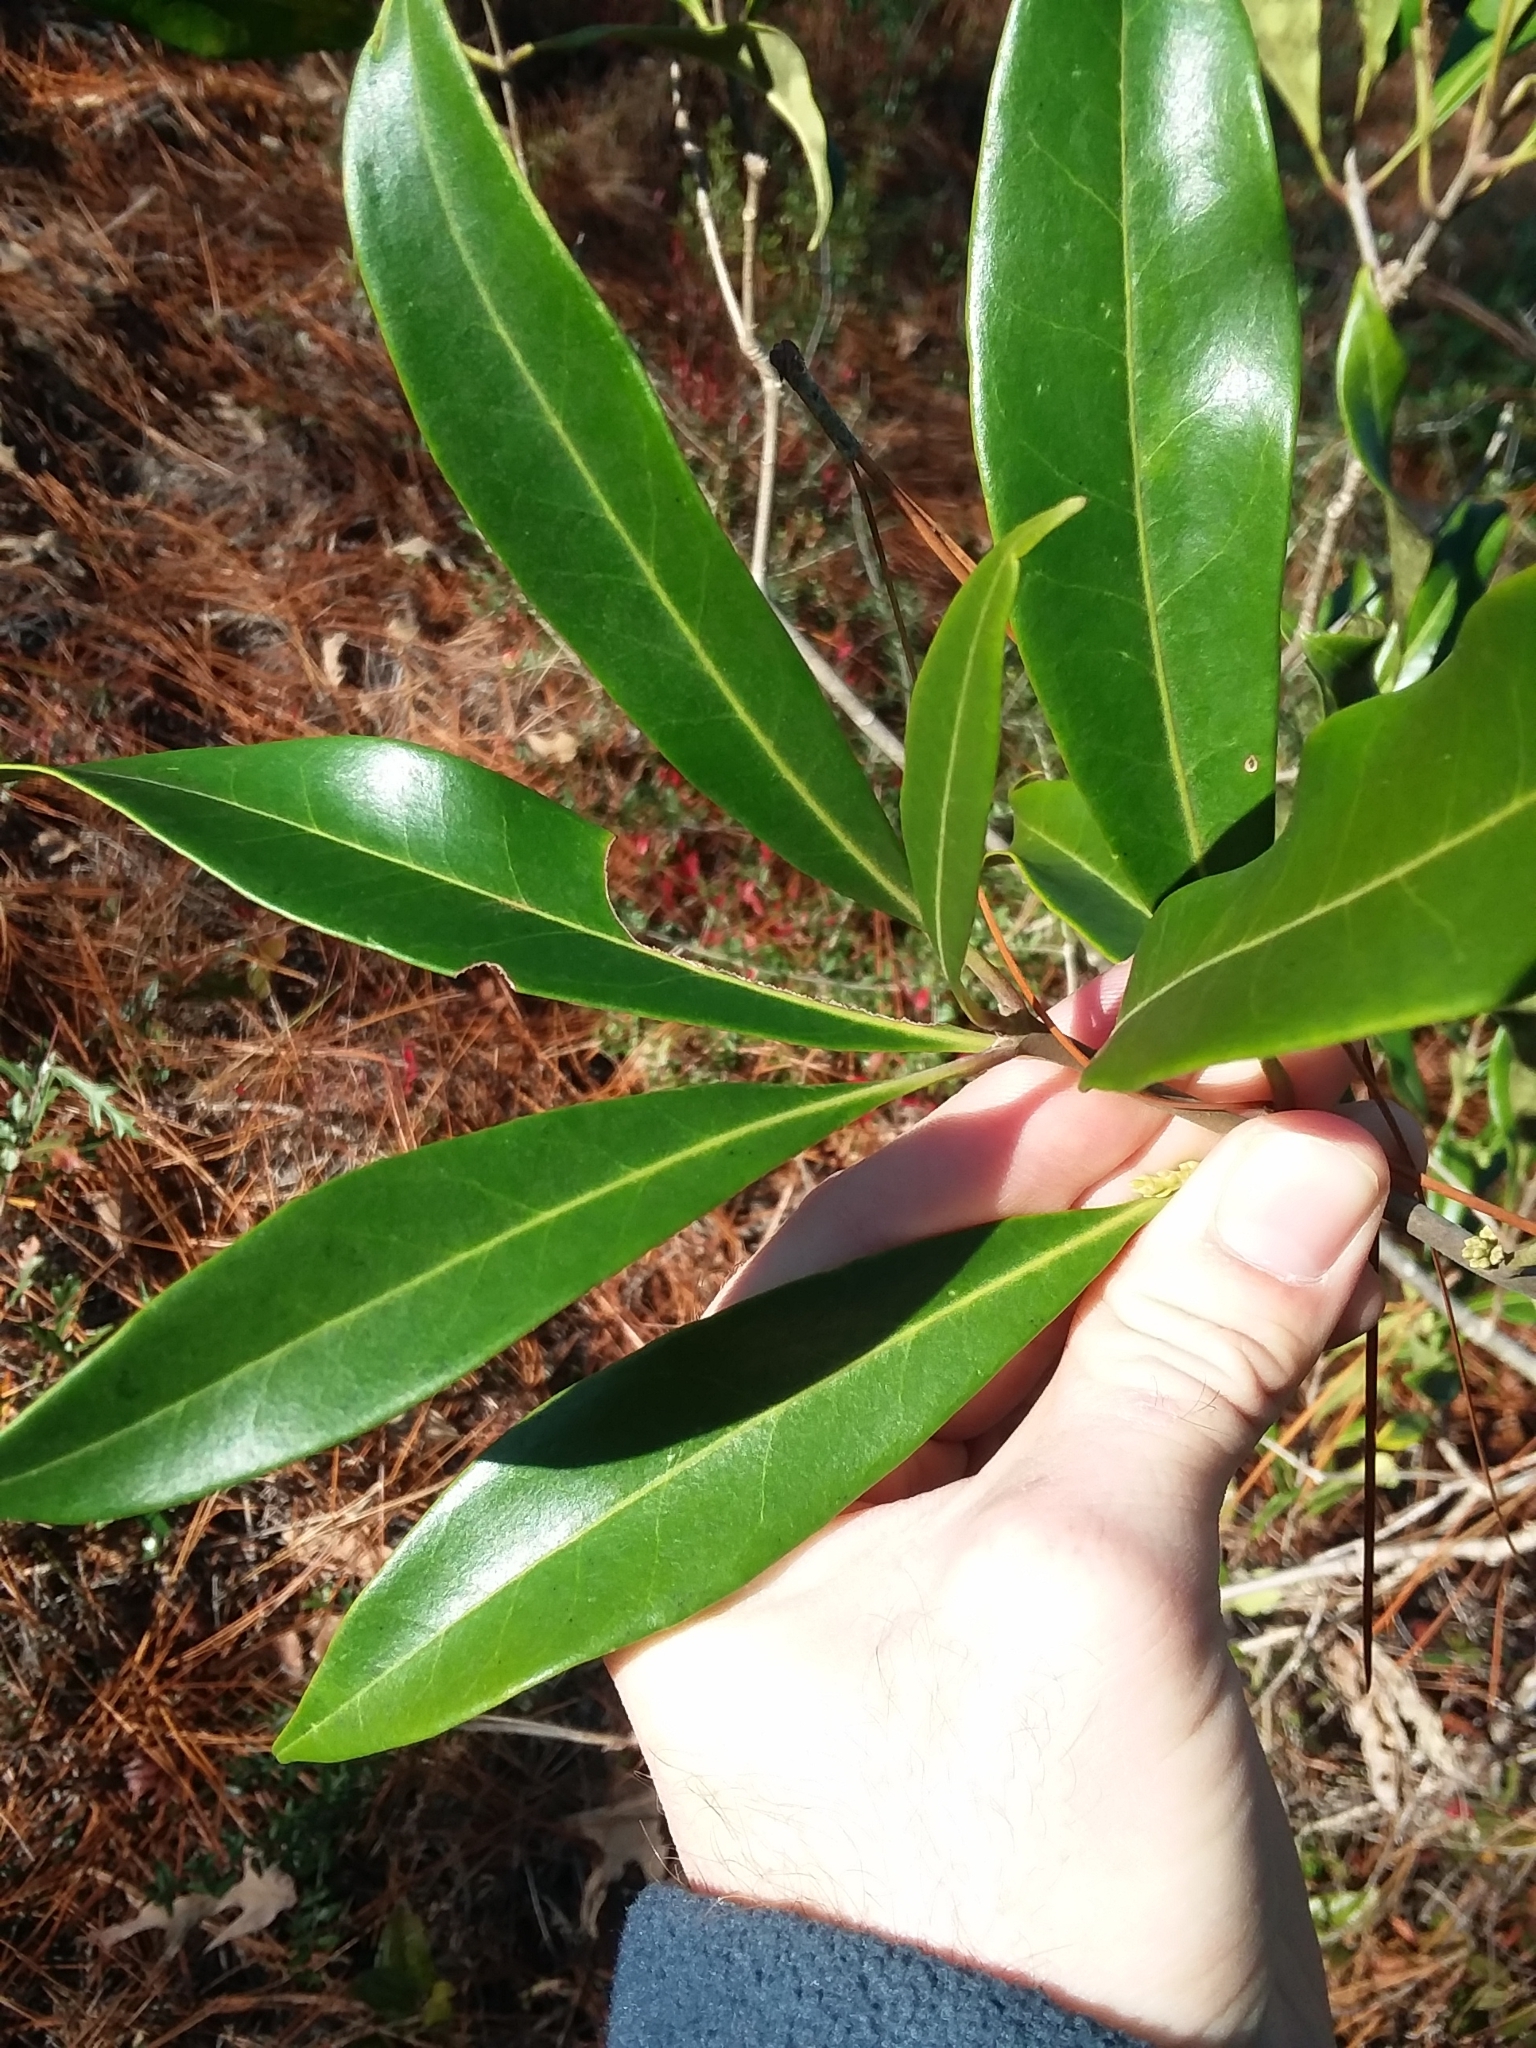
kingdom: Plantae
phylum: Tracheophyta
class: Magnoliopsida
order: Lamiales
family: Oleaceae
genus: Cartrema
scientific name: Cartrema americana
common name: Devilwood
